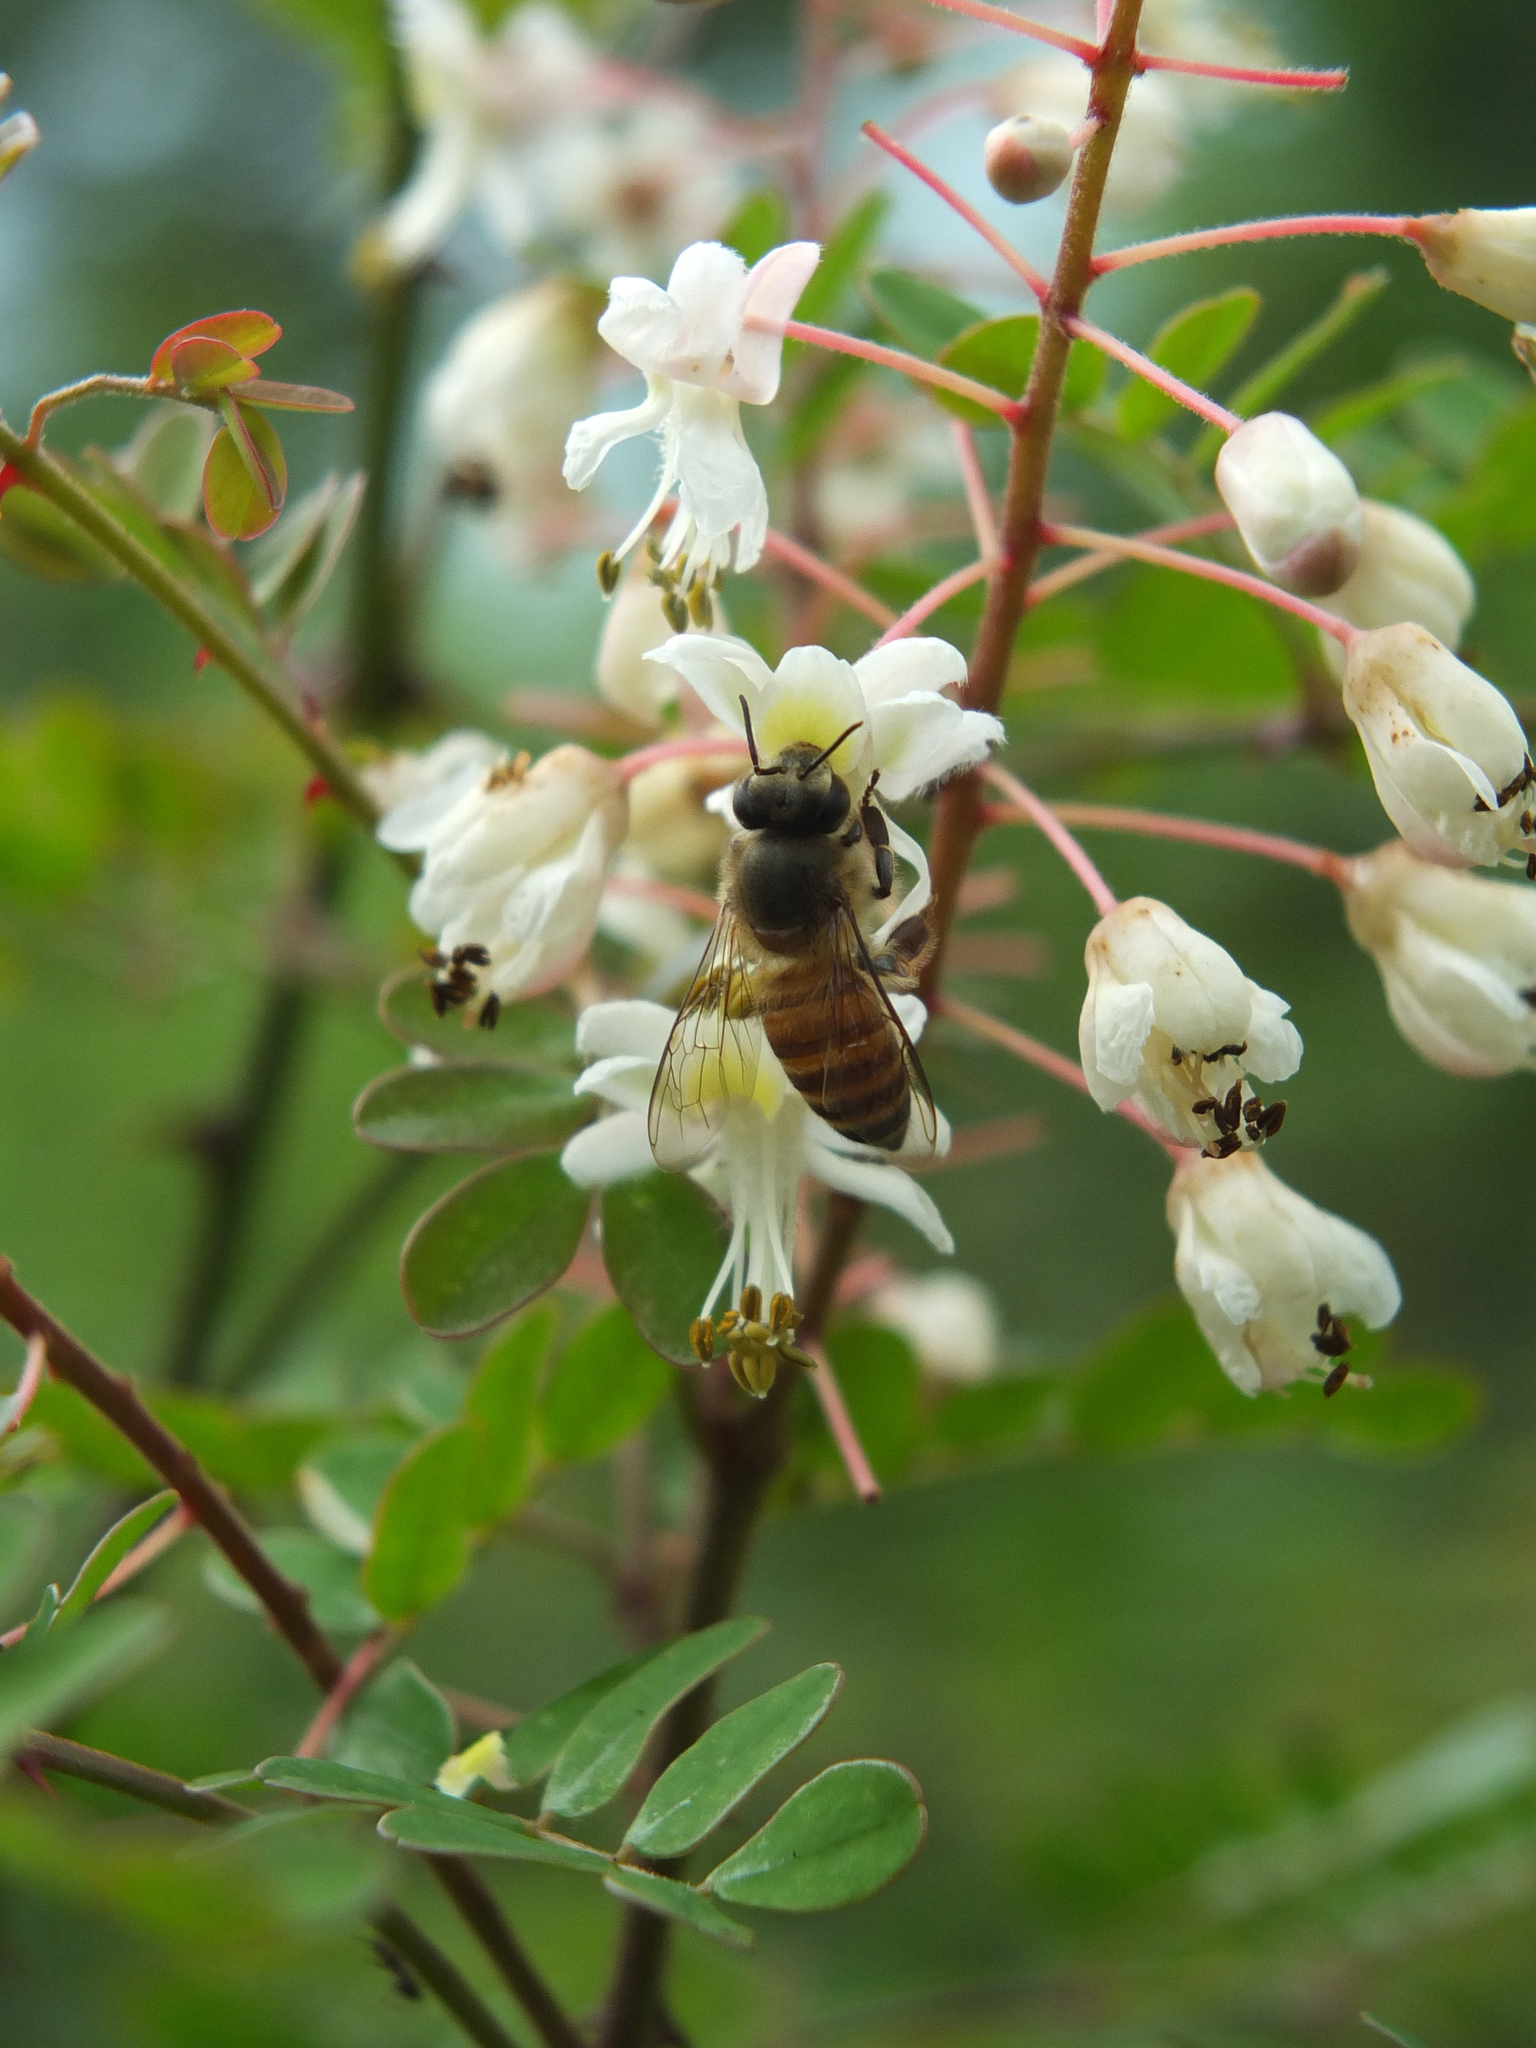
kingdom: Plantae
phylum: Tracheophyta
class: Magnoliopsida
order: Fabales
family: Fabaceae
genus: Pterolobium
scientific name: Pterolobium hexapetalum
